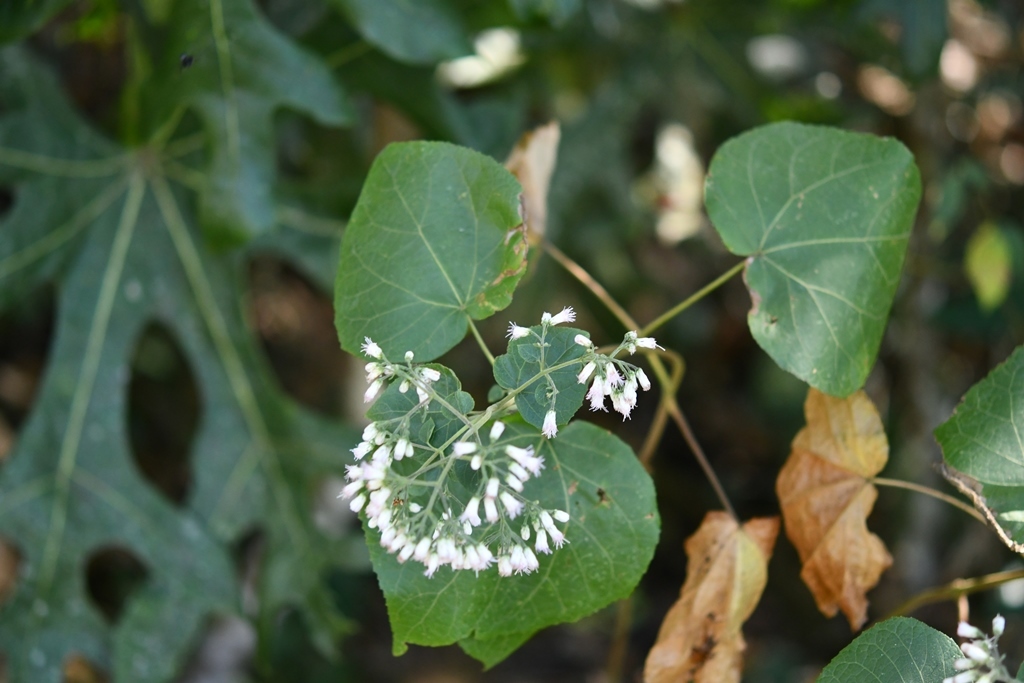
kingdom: Plantae
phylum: Tracheophyta
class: Magnoliopsida
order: Asterales
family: Asteraceae
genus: Peteravenia
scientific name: Peteravenia schultzii
